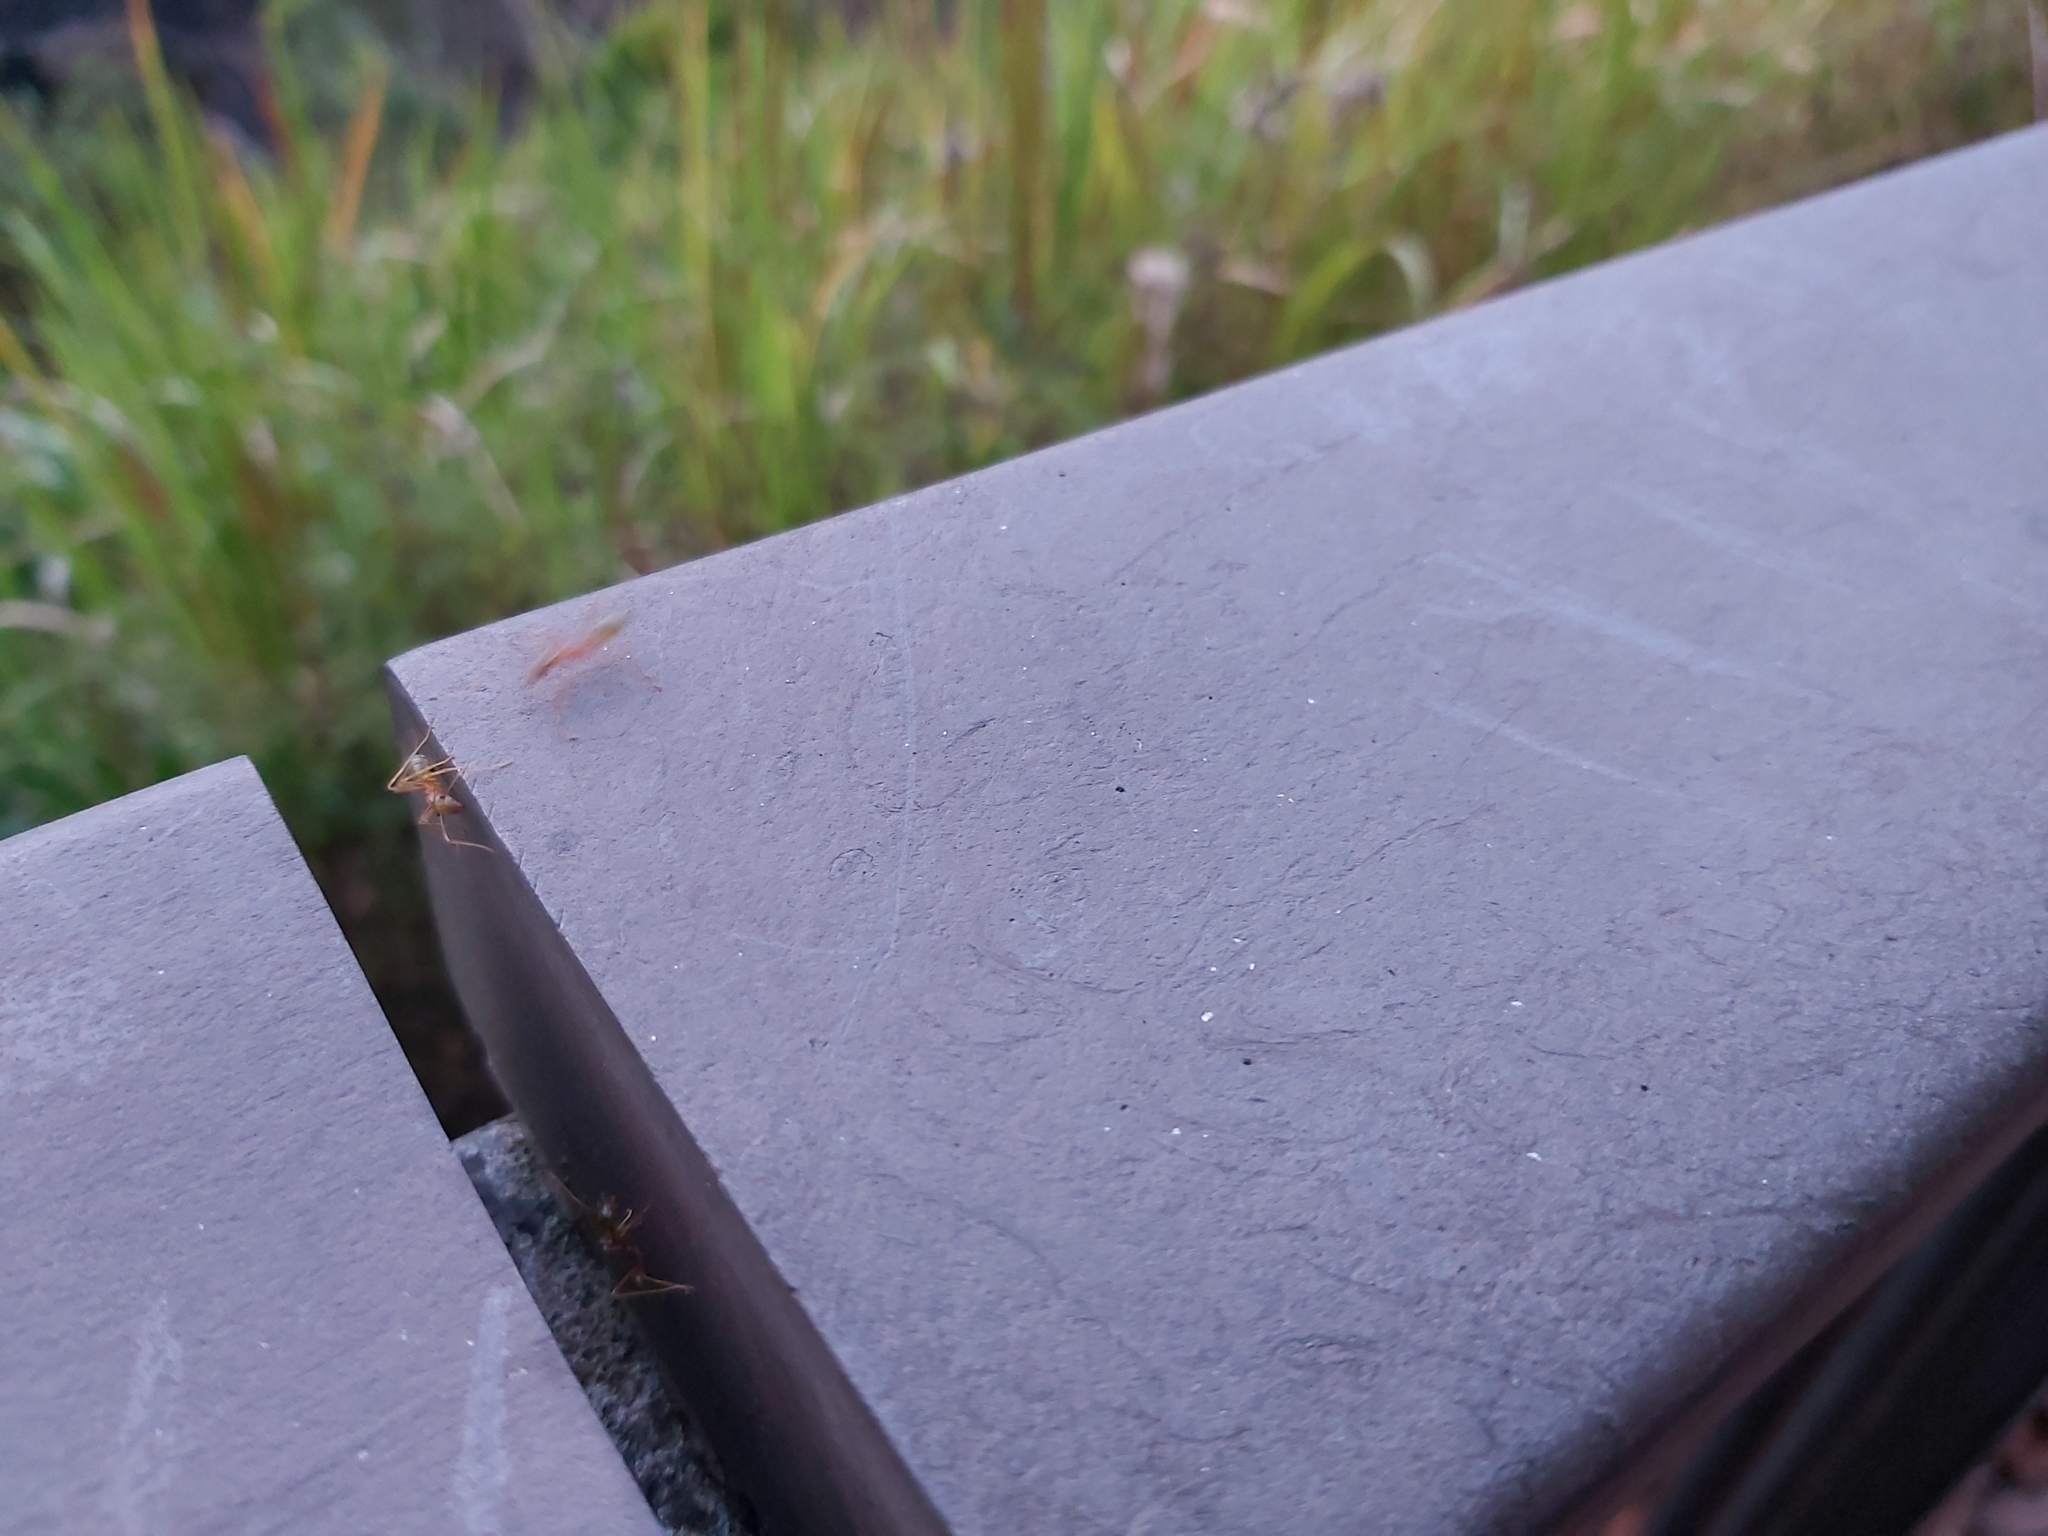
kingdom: Animalia
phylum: Arthropoda
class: Insecta
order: Hymenoptera
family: Formicidae
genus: Oecophylla
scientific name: Oecophylla smaragdina
